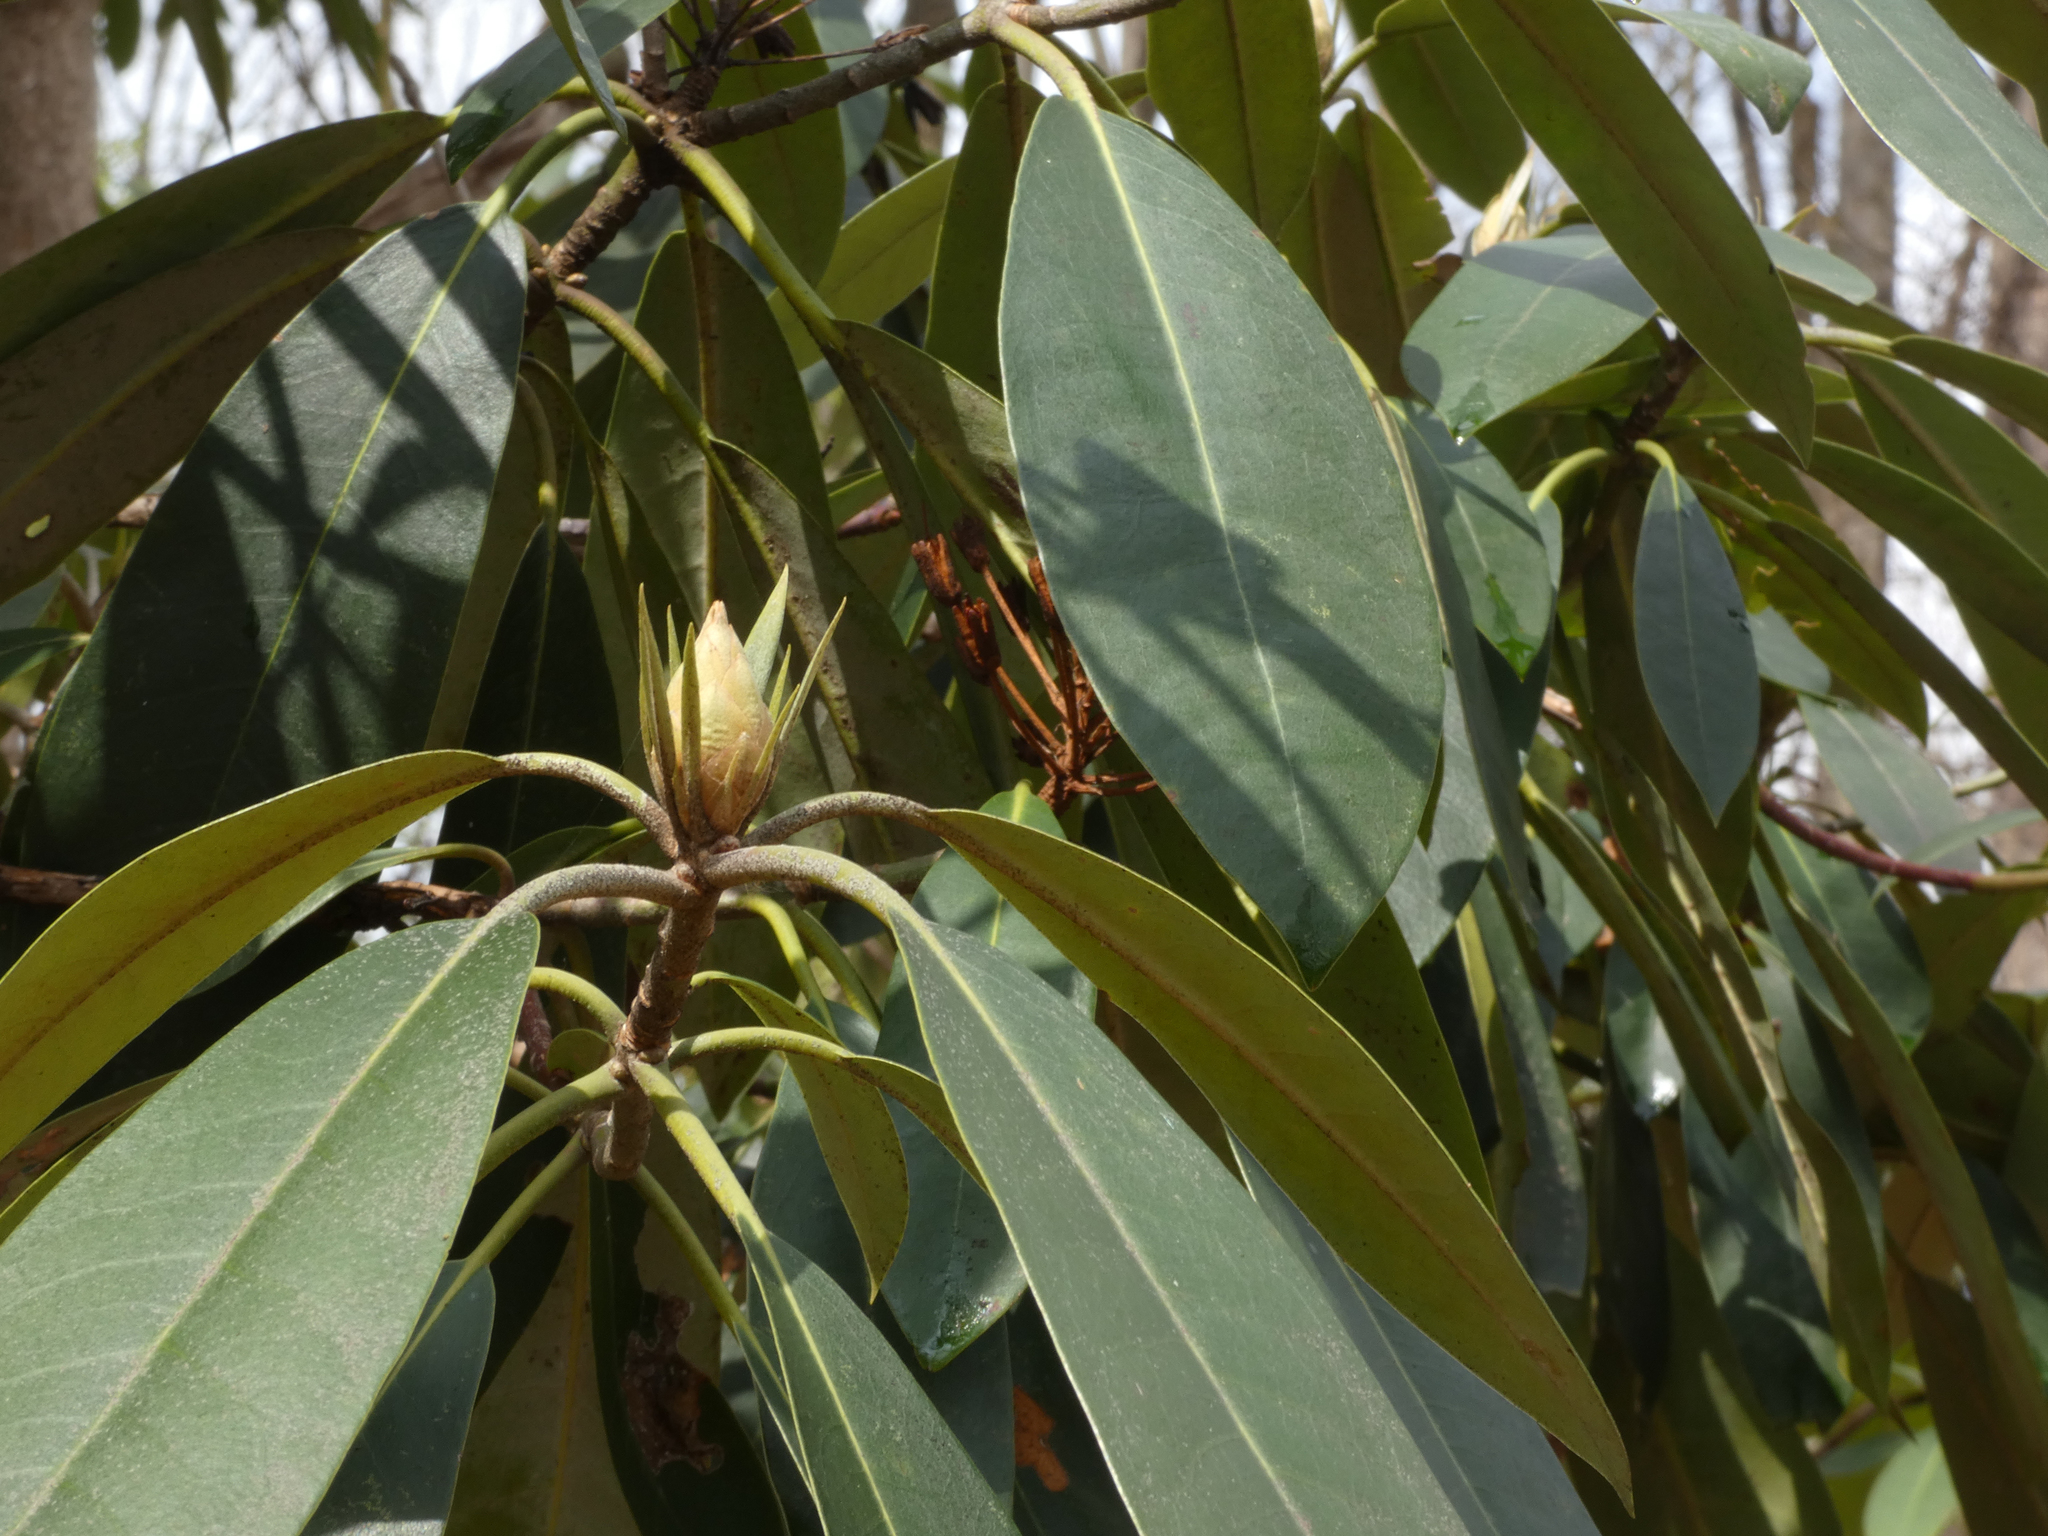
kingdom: Plantae
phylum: Tracheophyta
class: Magnoliopsida
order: Ericales
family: Ericaceae
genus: Rhododendron
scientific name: Rhododendron maximum
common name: Great rhododendron
